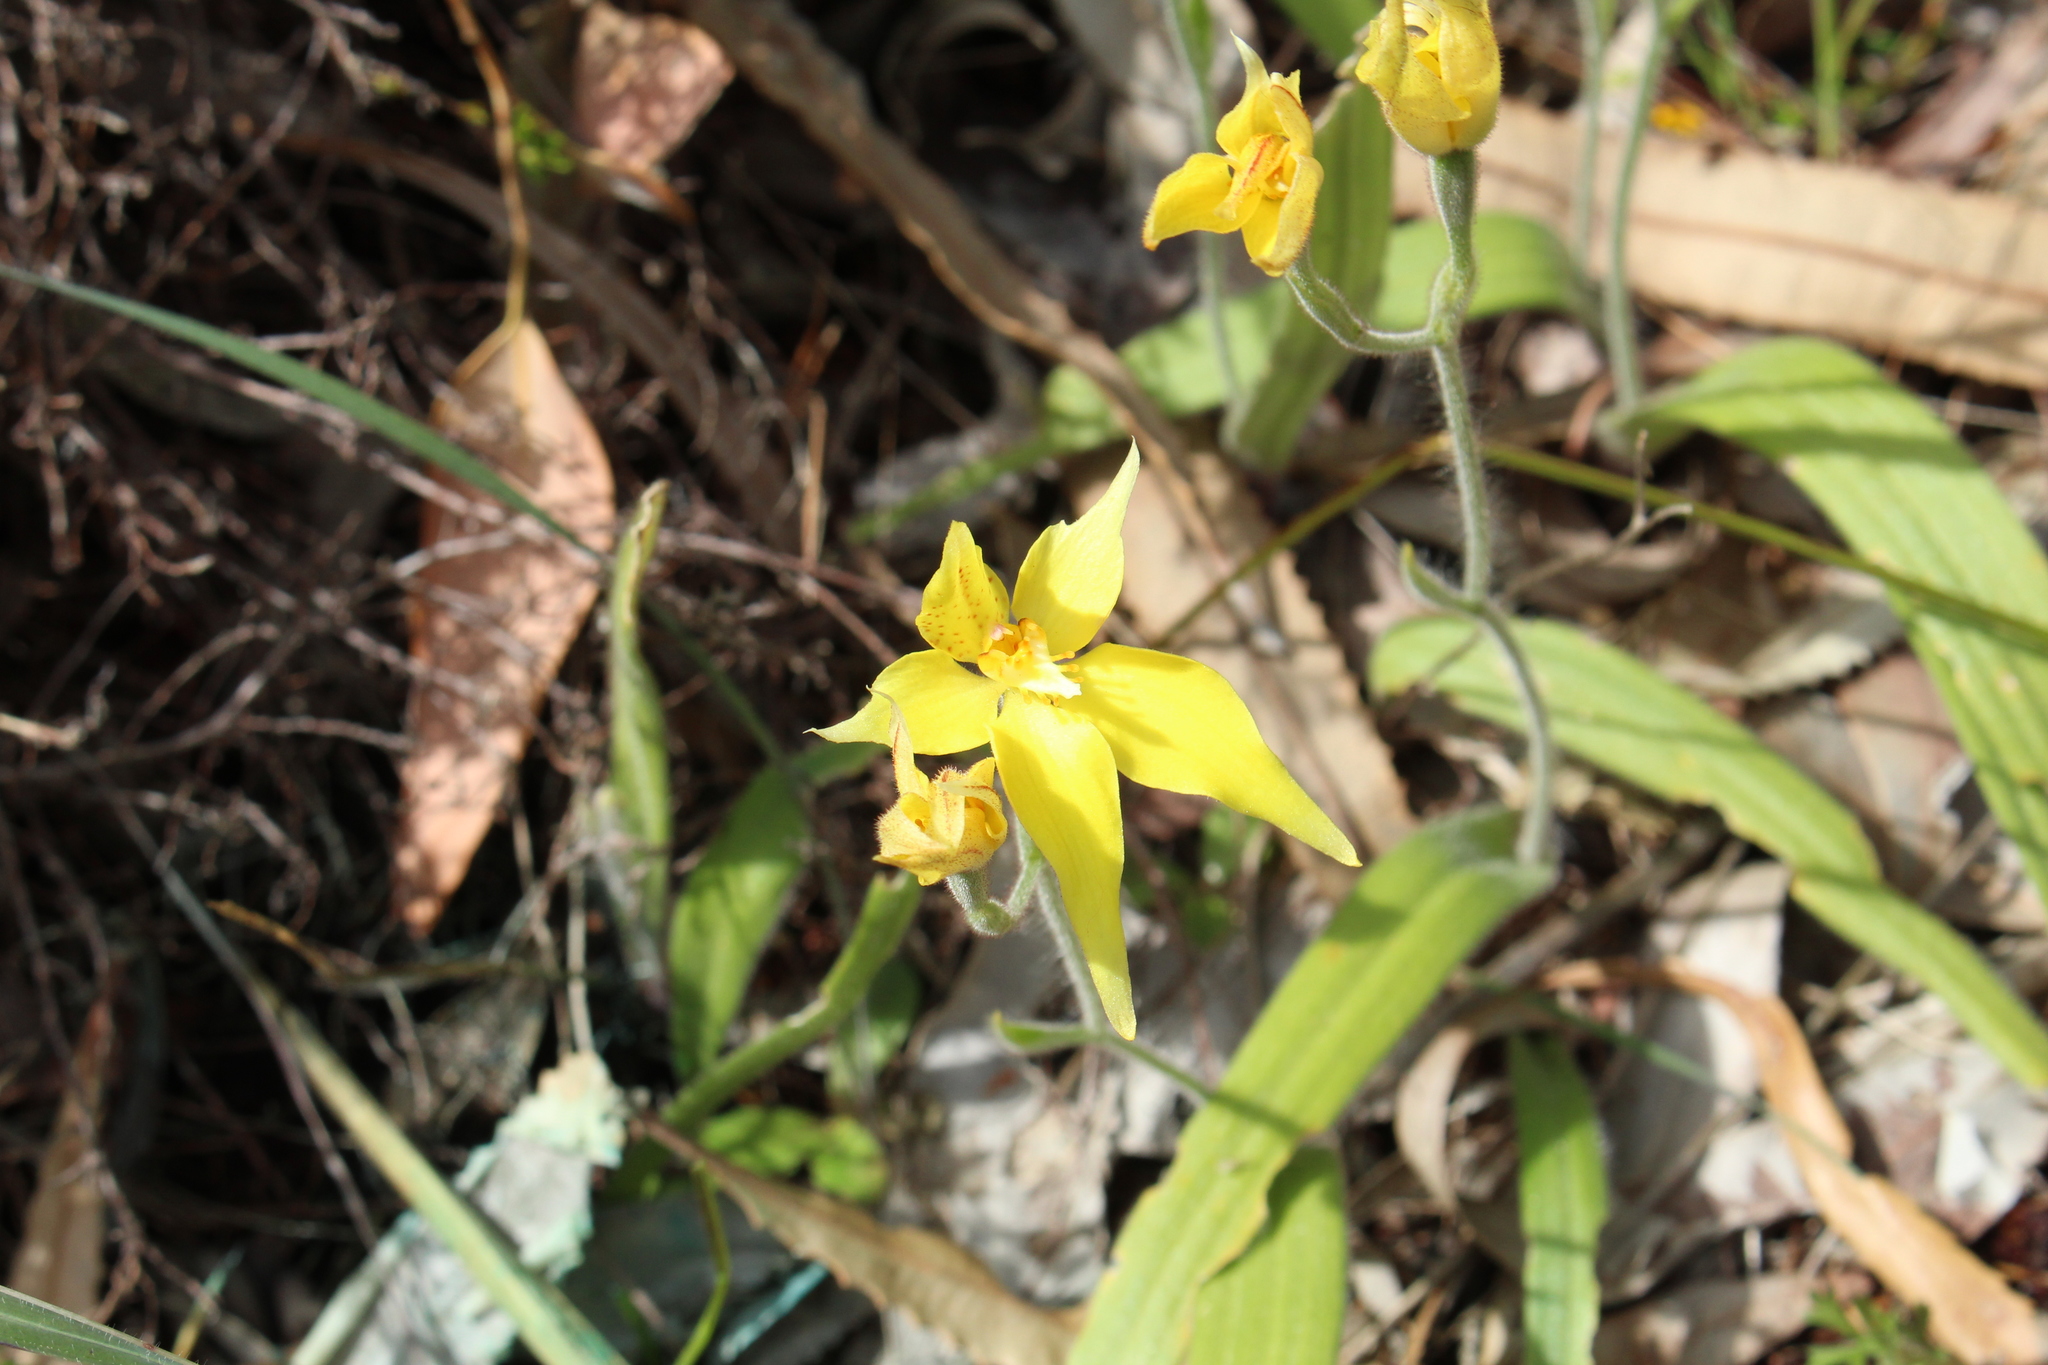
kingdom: Plantae
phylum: Tracheophyta
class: Liliopsida
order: Asparagales
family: Orchidaceae
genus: Caladenia
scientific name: Caladenia flava
